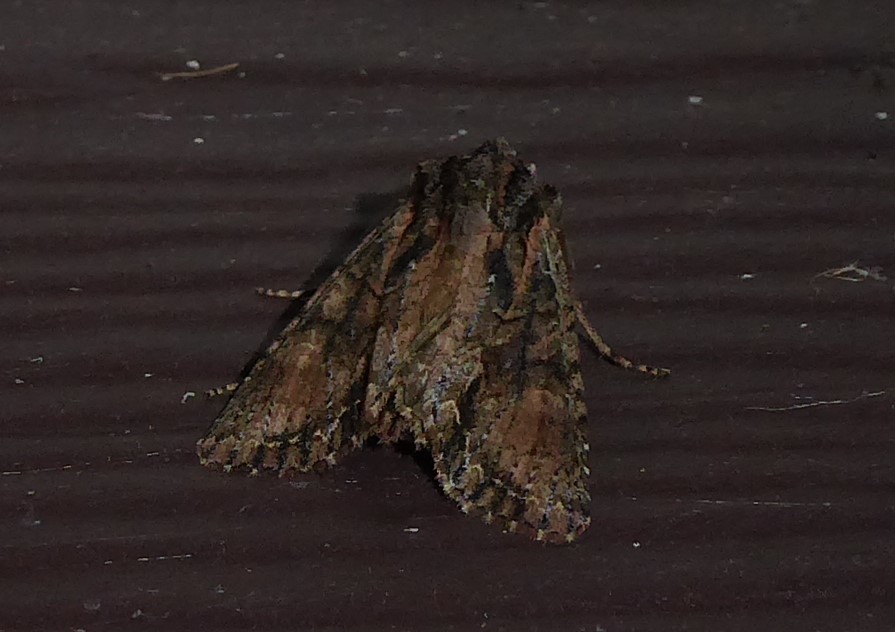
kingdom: Animalia
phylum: Arthropoda
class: Insecta
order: Lepidoptera
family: Noctuidae
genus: Ichneutica
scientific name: Ichneutica mutans
